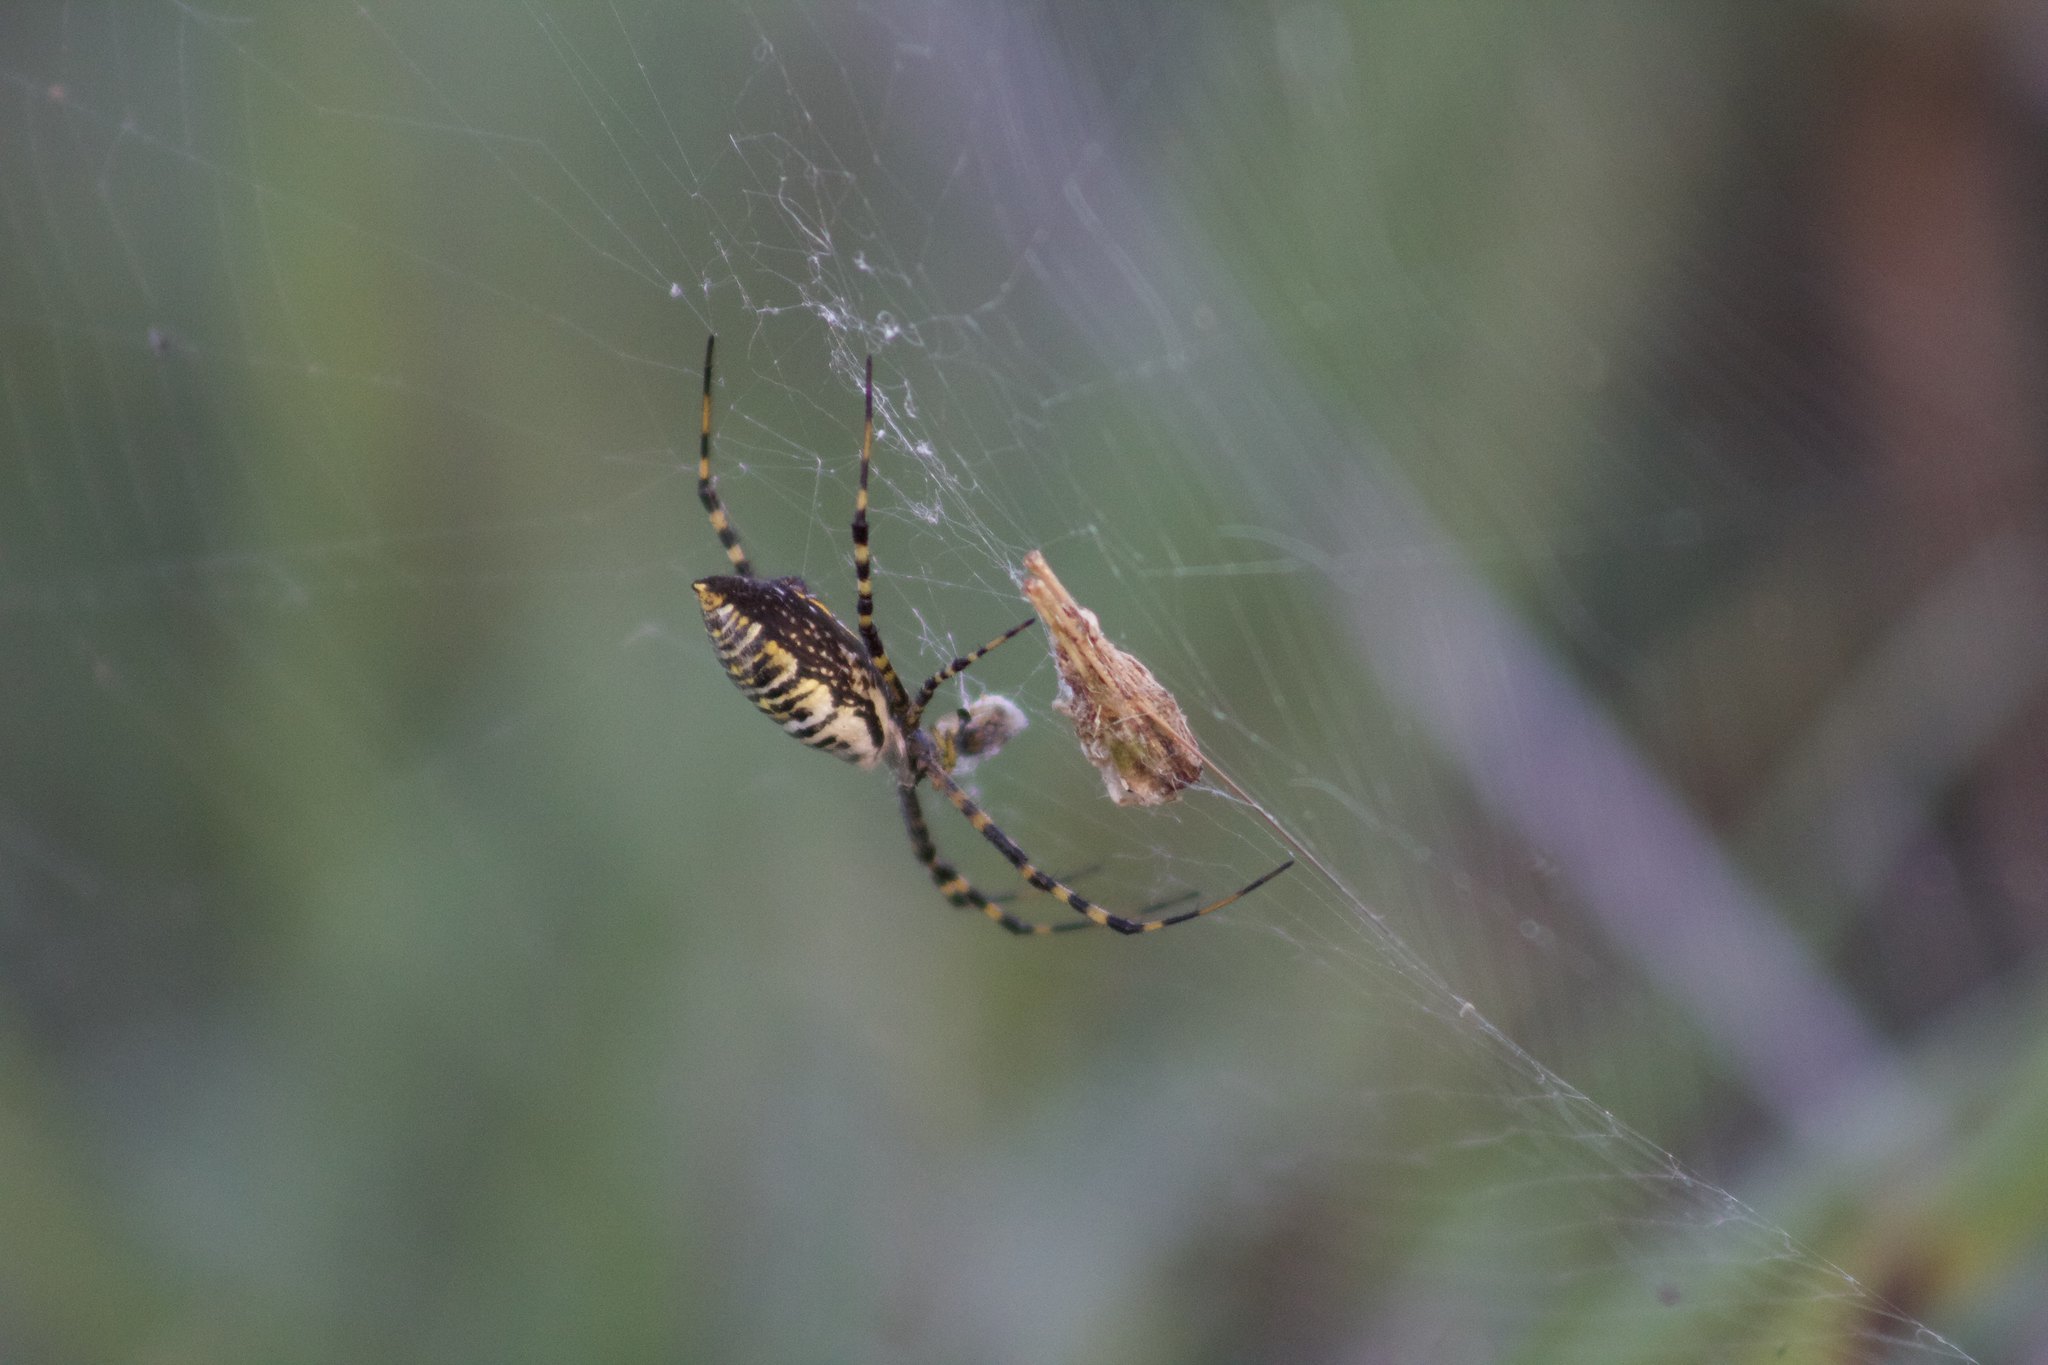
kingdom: Animalia
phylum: Arthropoda
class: Arachnida
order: Araneae
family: Araneidae
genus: Argiope
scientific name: Argiope trifasciata
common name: Banded garden spider
